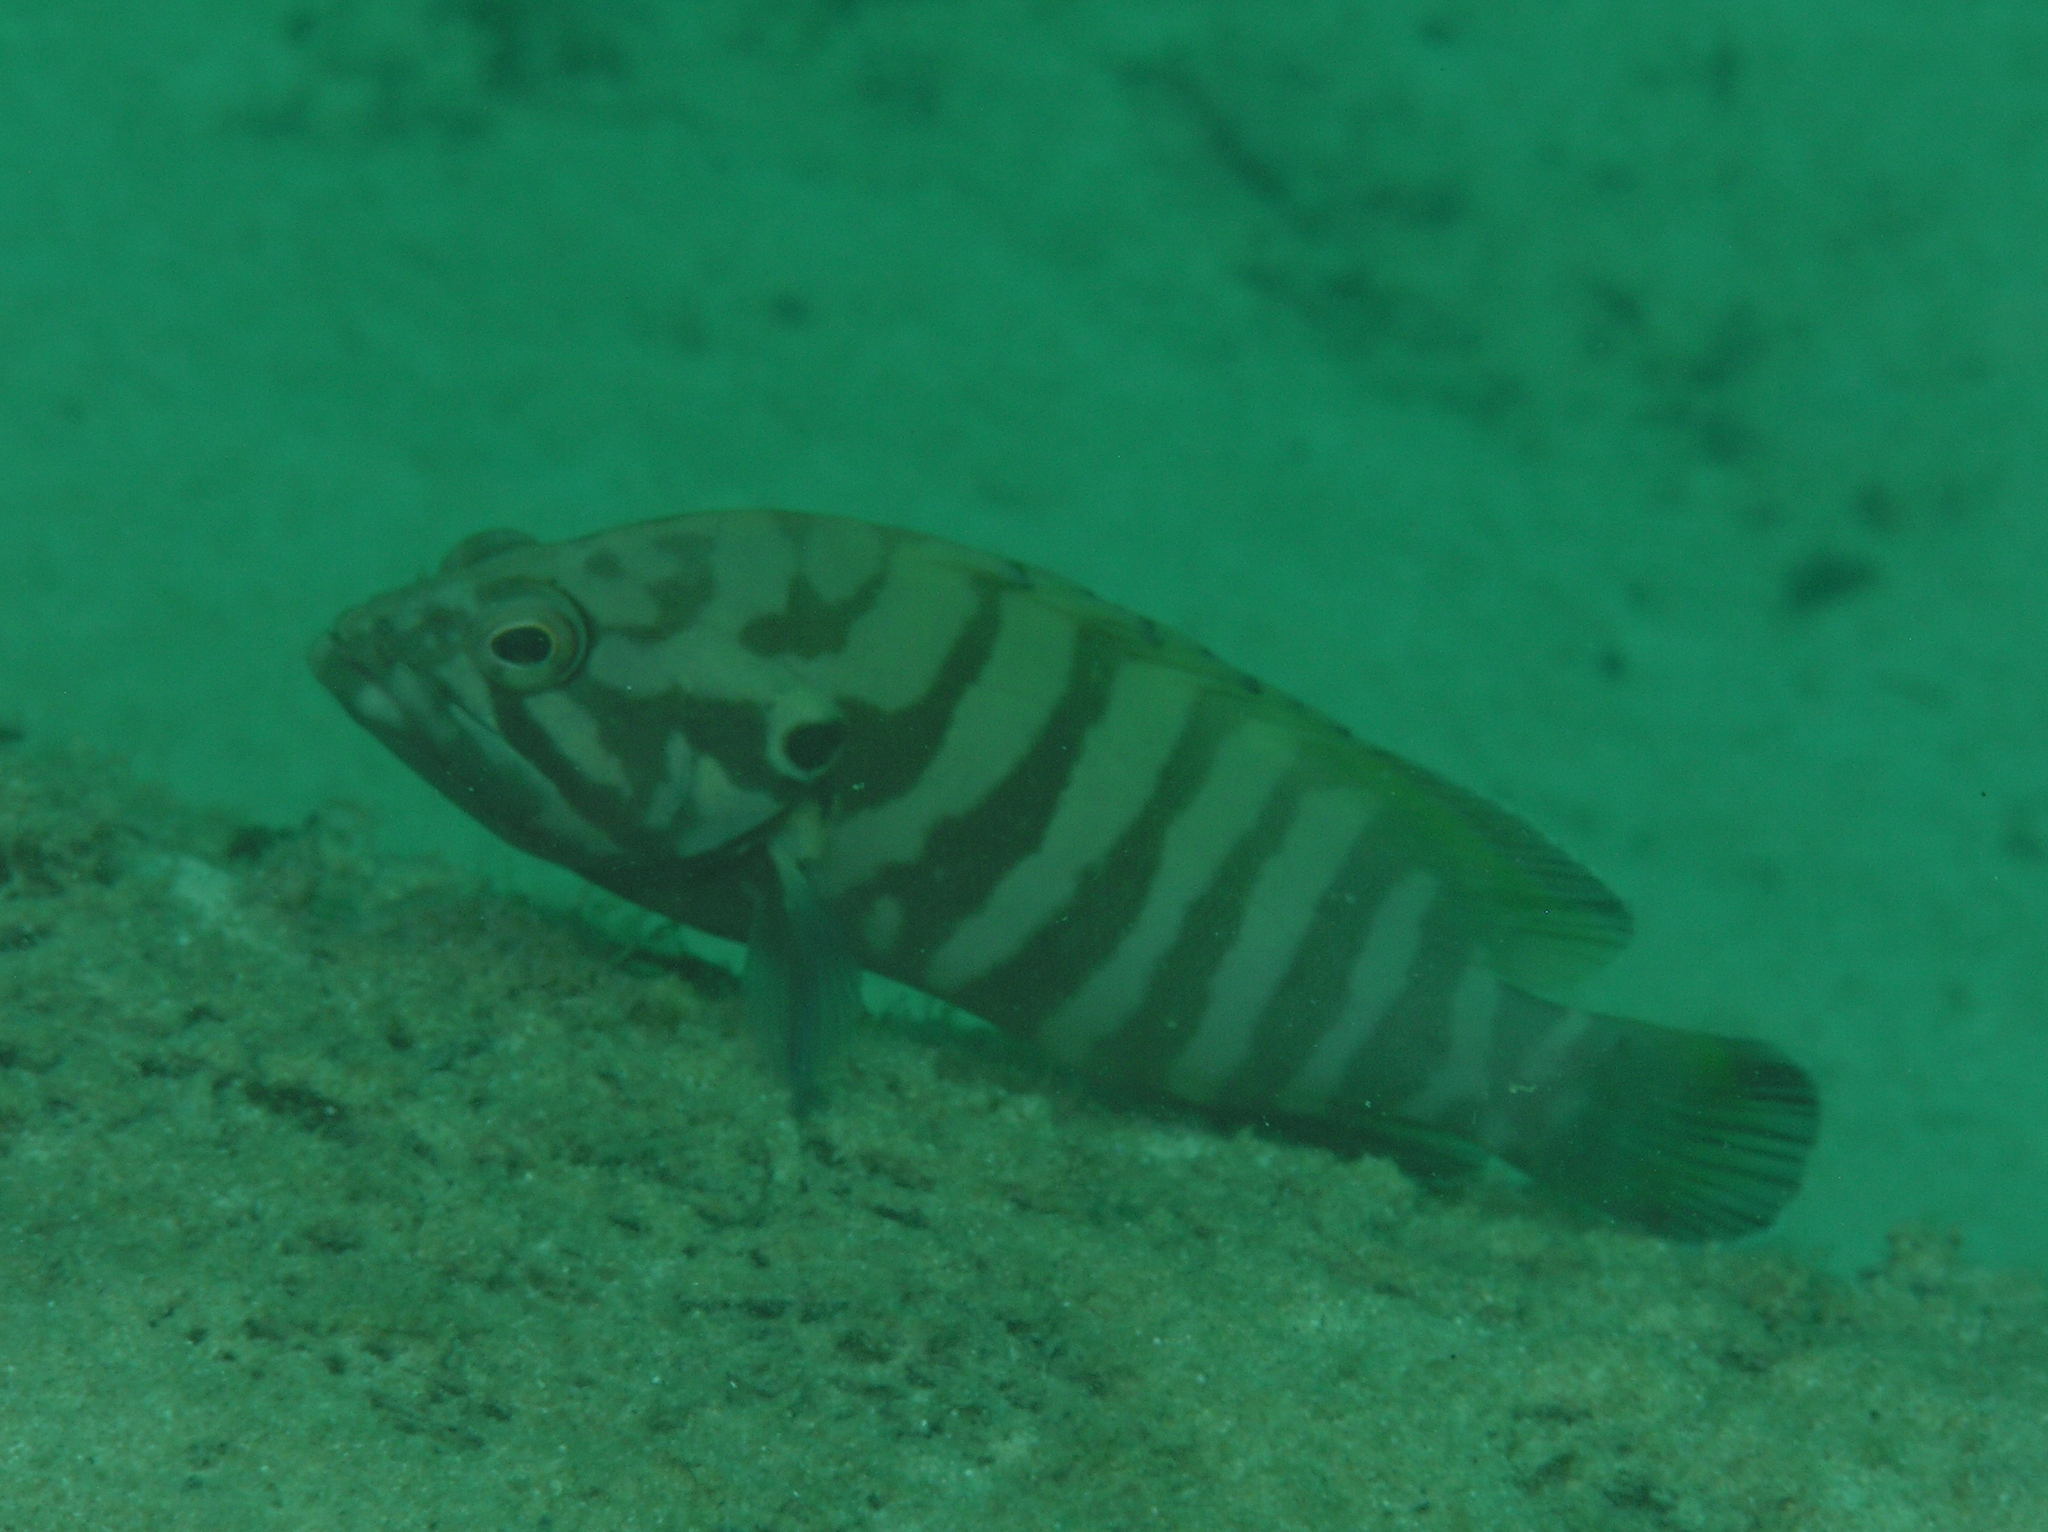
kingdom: Animalia
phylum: Chordata
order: Perciformes
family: Serranidae
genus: Cephalopholis
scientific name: Cephalopholis boenak
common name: Chocolate hind
